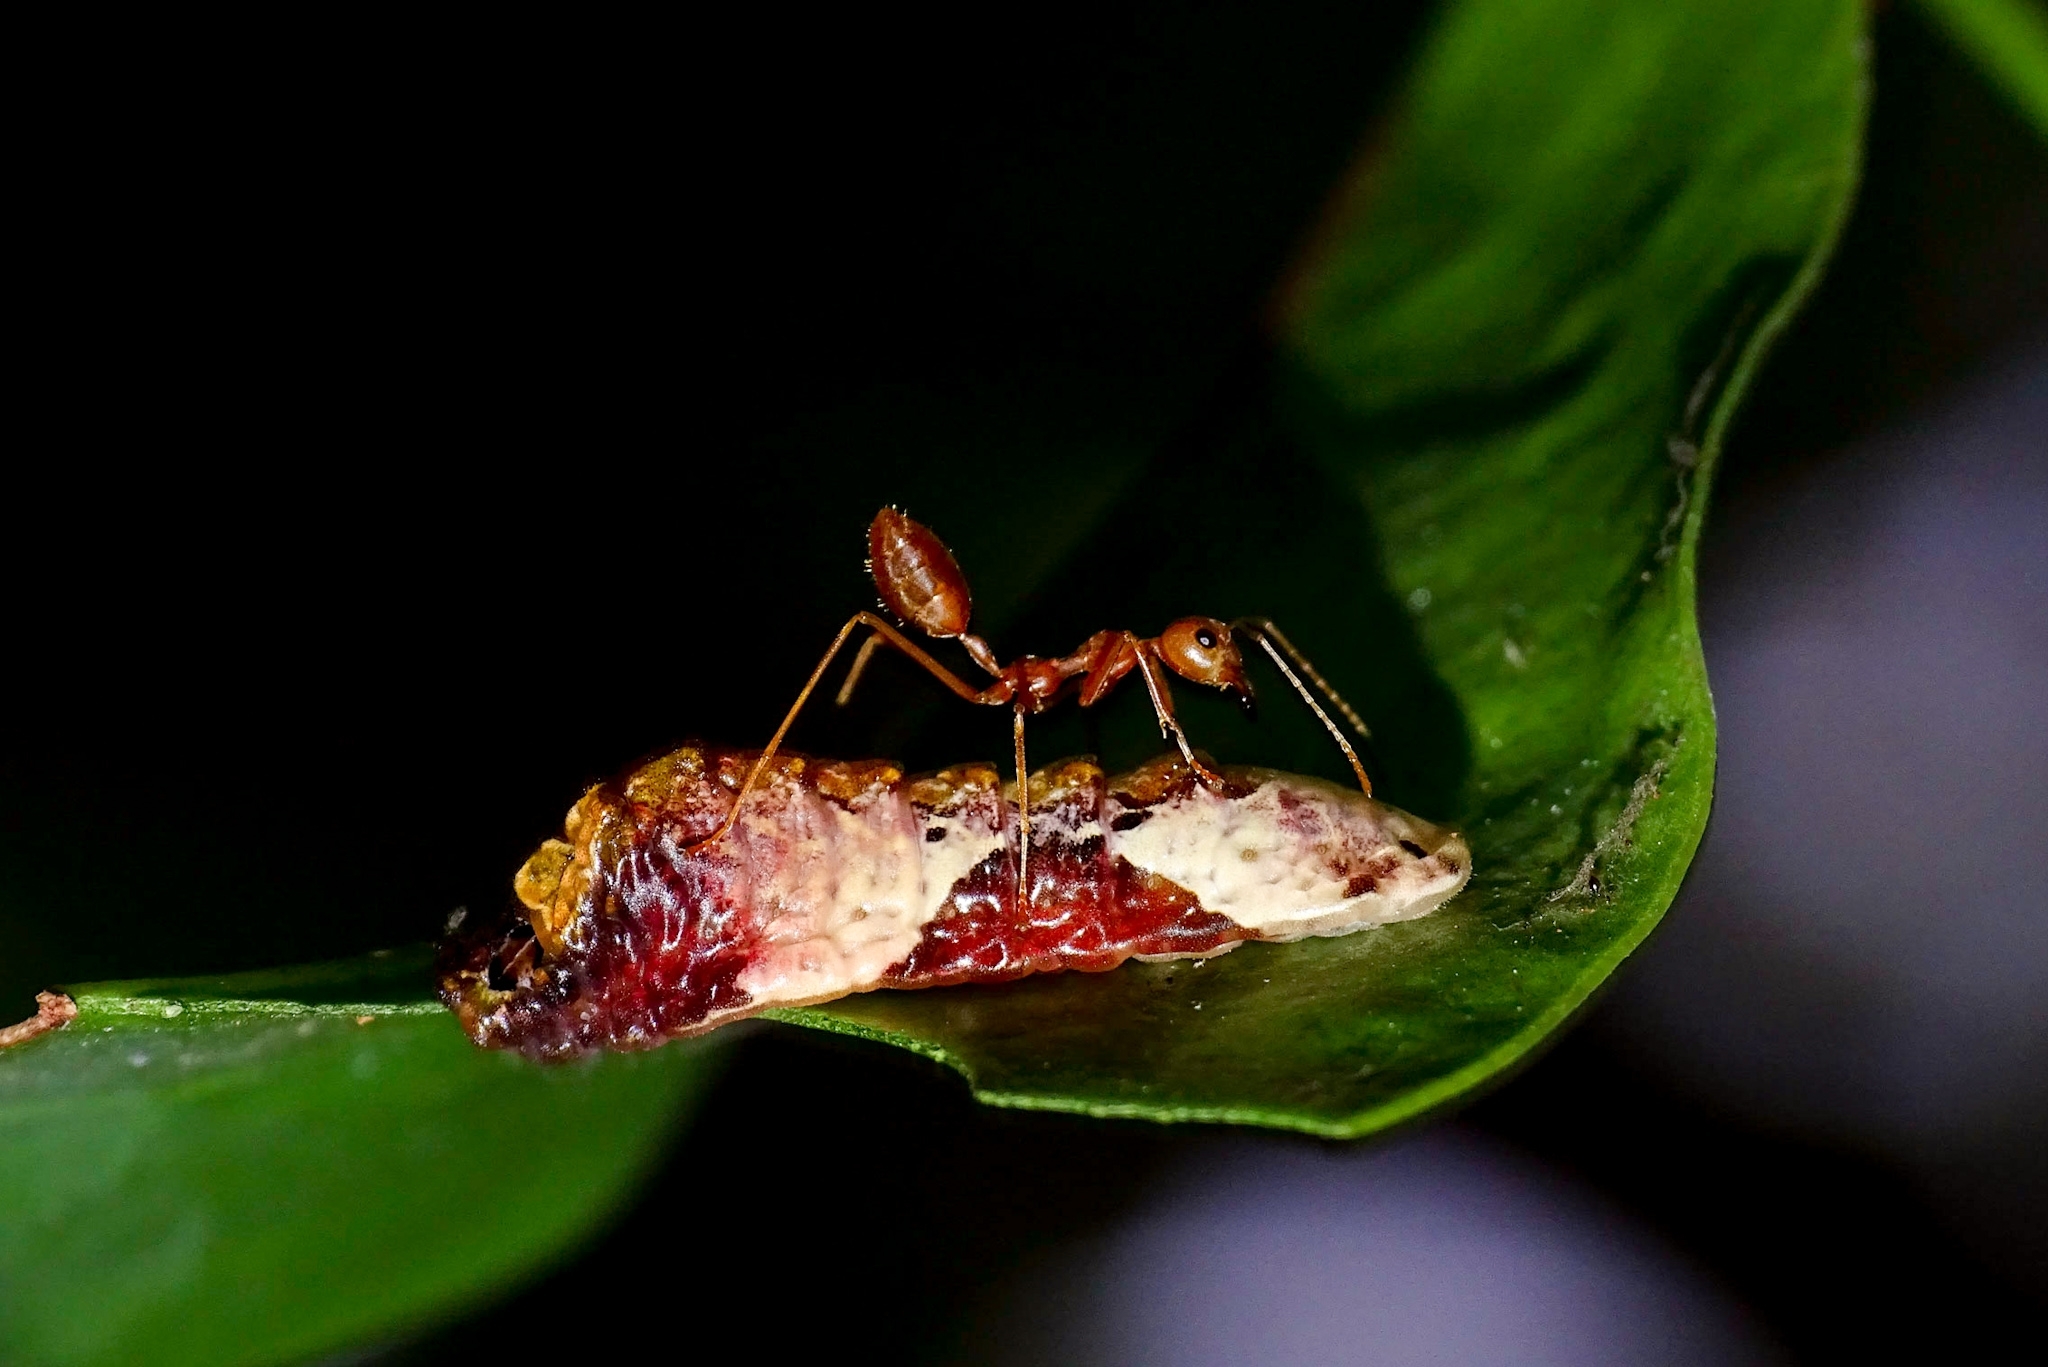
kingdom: Animalia
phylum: Arthropoda
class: Insecta
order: Lepidoptera
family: Lycaenidae
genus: Tajuria
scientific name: Tajuria cippus
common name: Peacock royal
